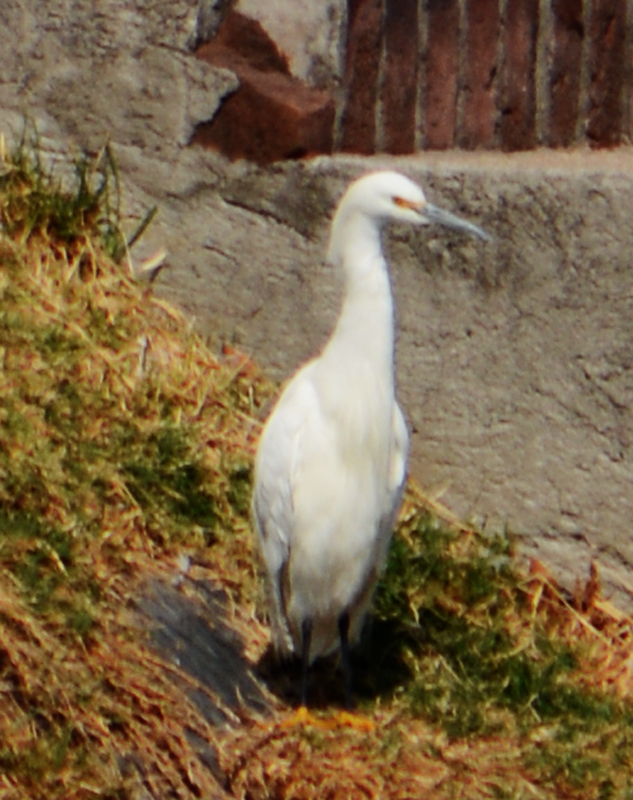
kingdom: Animalia
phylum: Chordata
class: Aves
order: Pelecaniformes
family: Ardeidae
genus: Egretta
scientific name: Egretta thula
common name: Snowy egret
